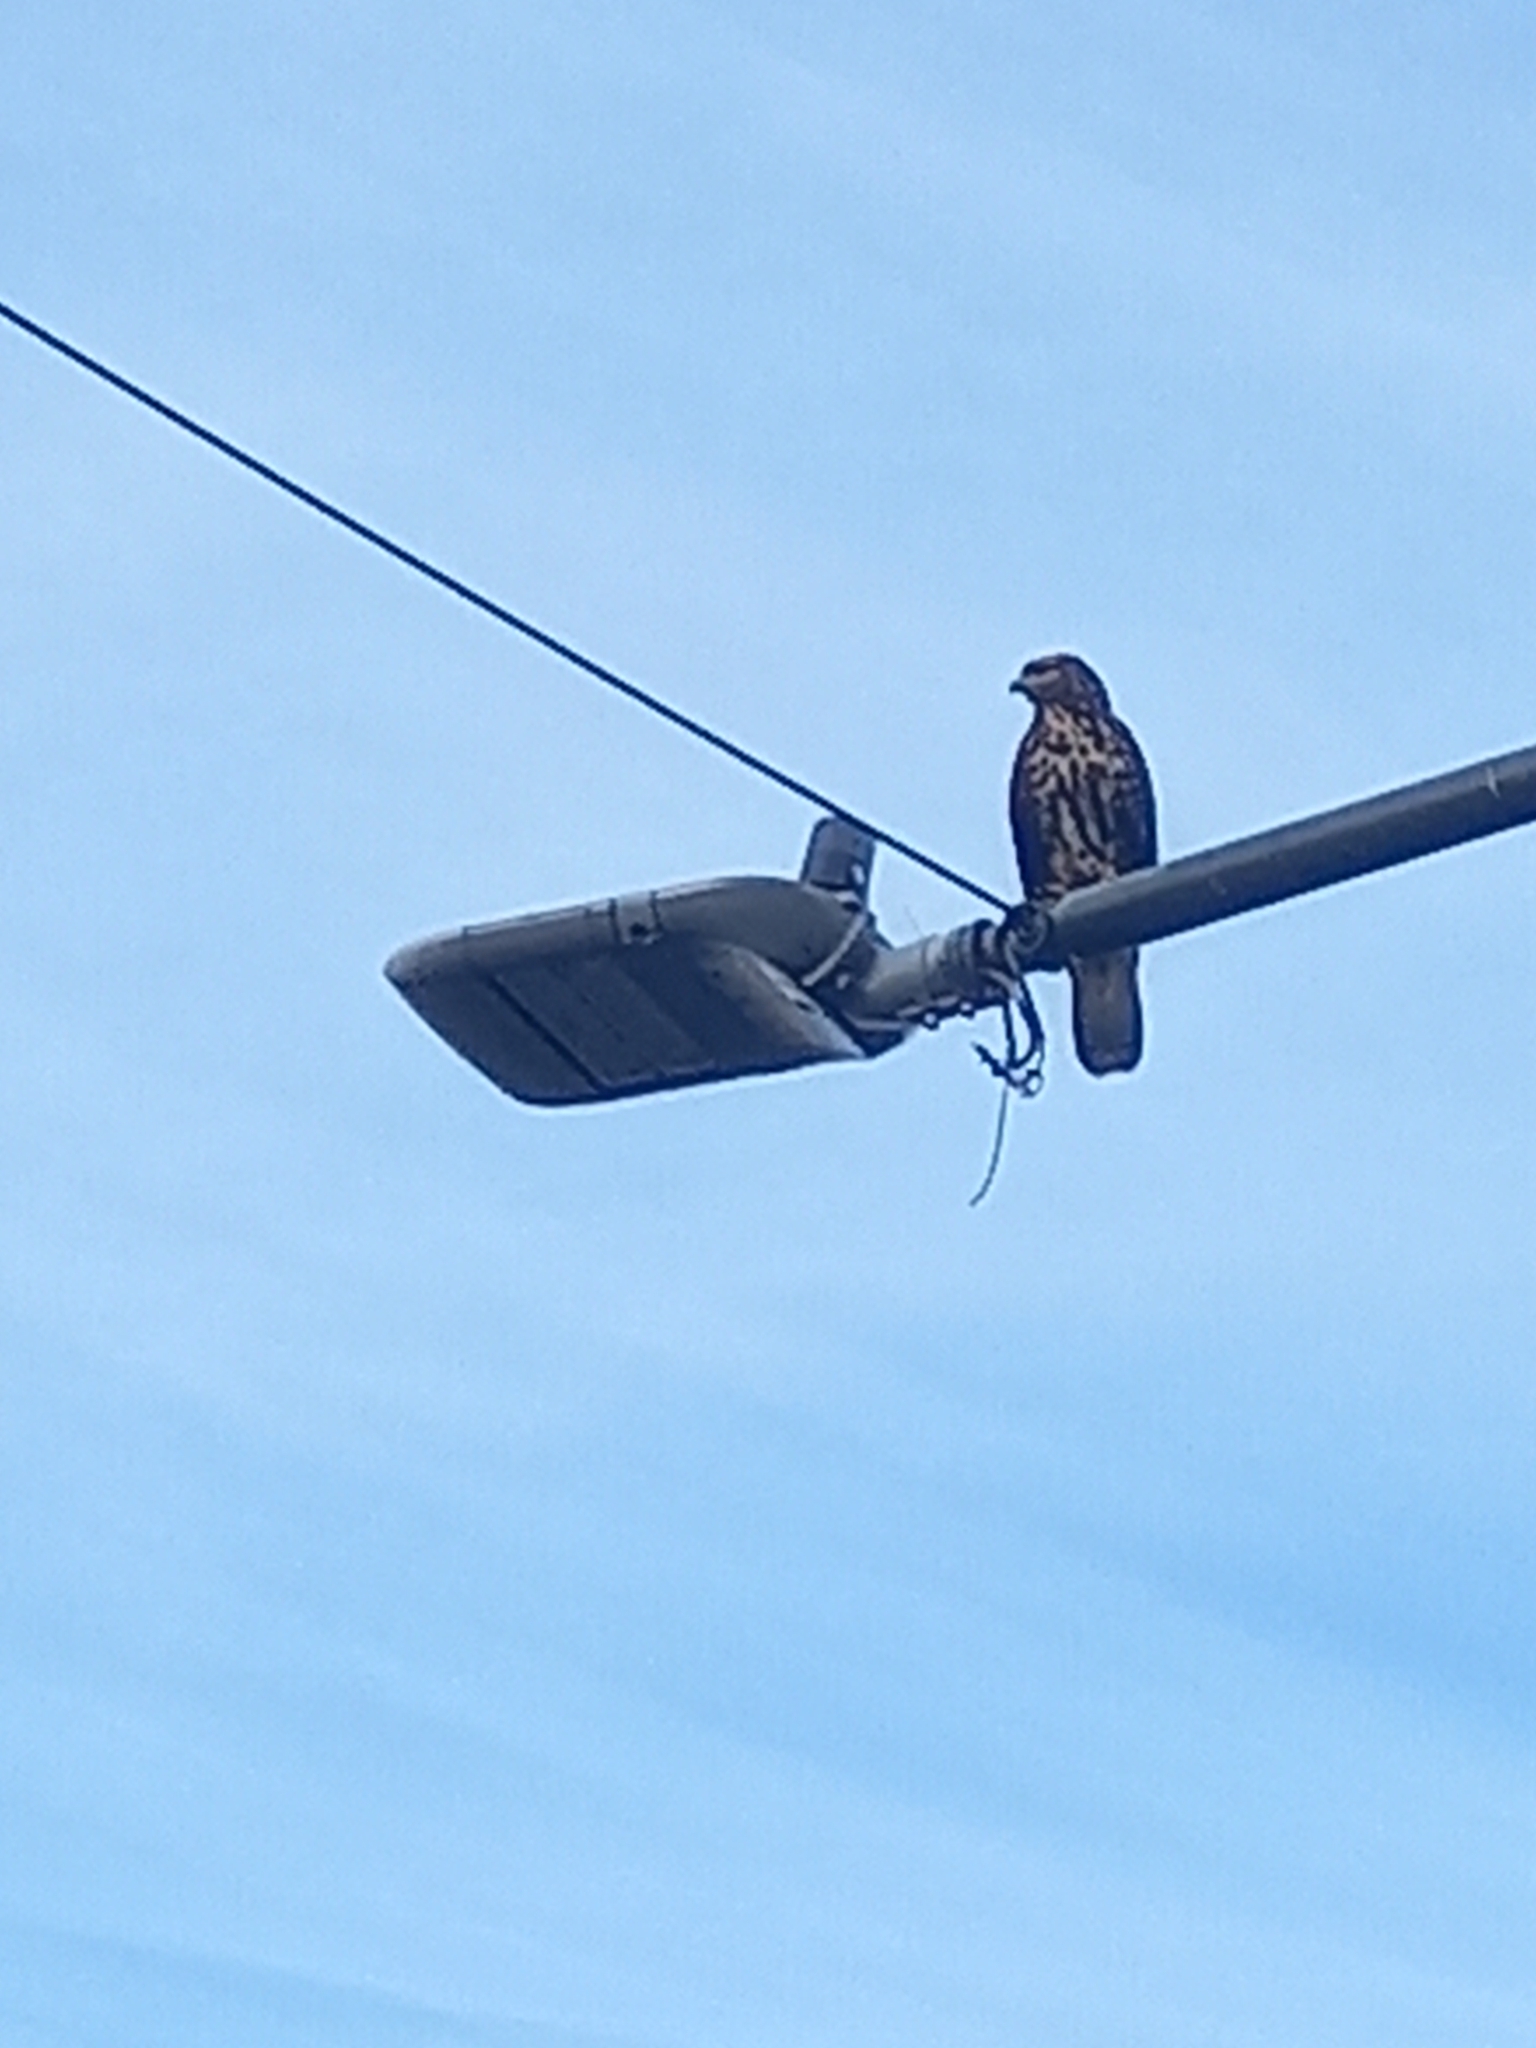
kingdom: Animalia
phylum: Chordata
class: Aves
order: Accipitriformes
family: Accipitridae
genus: Parabuteo
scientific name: Parabuteo unicinctus
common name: Harris's hawk
